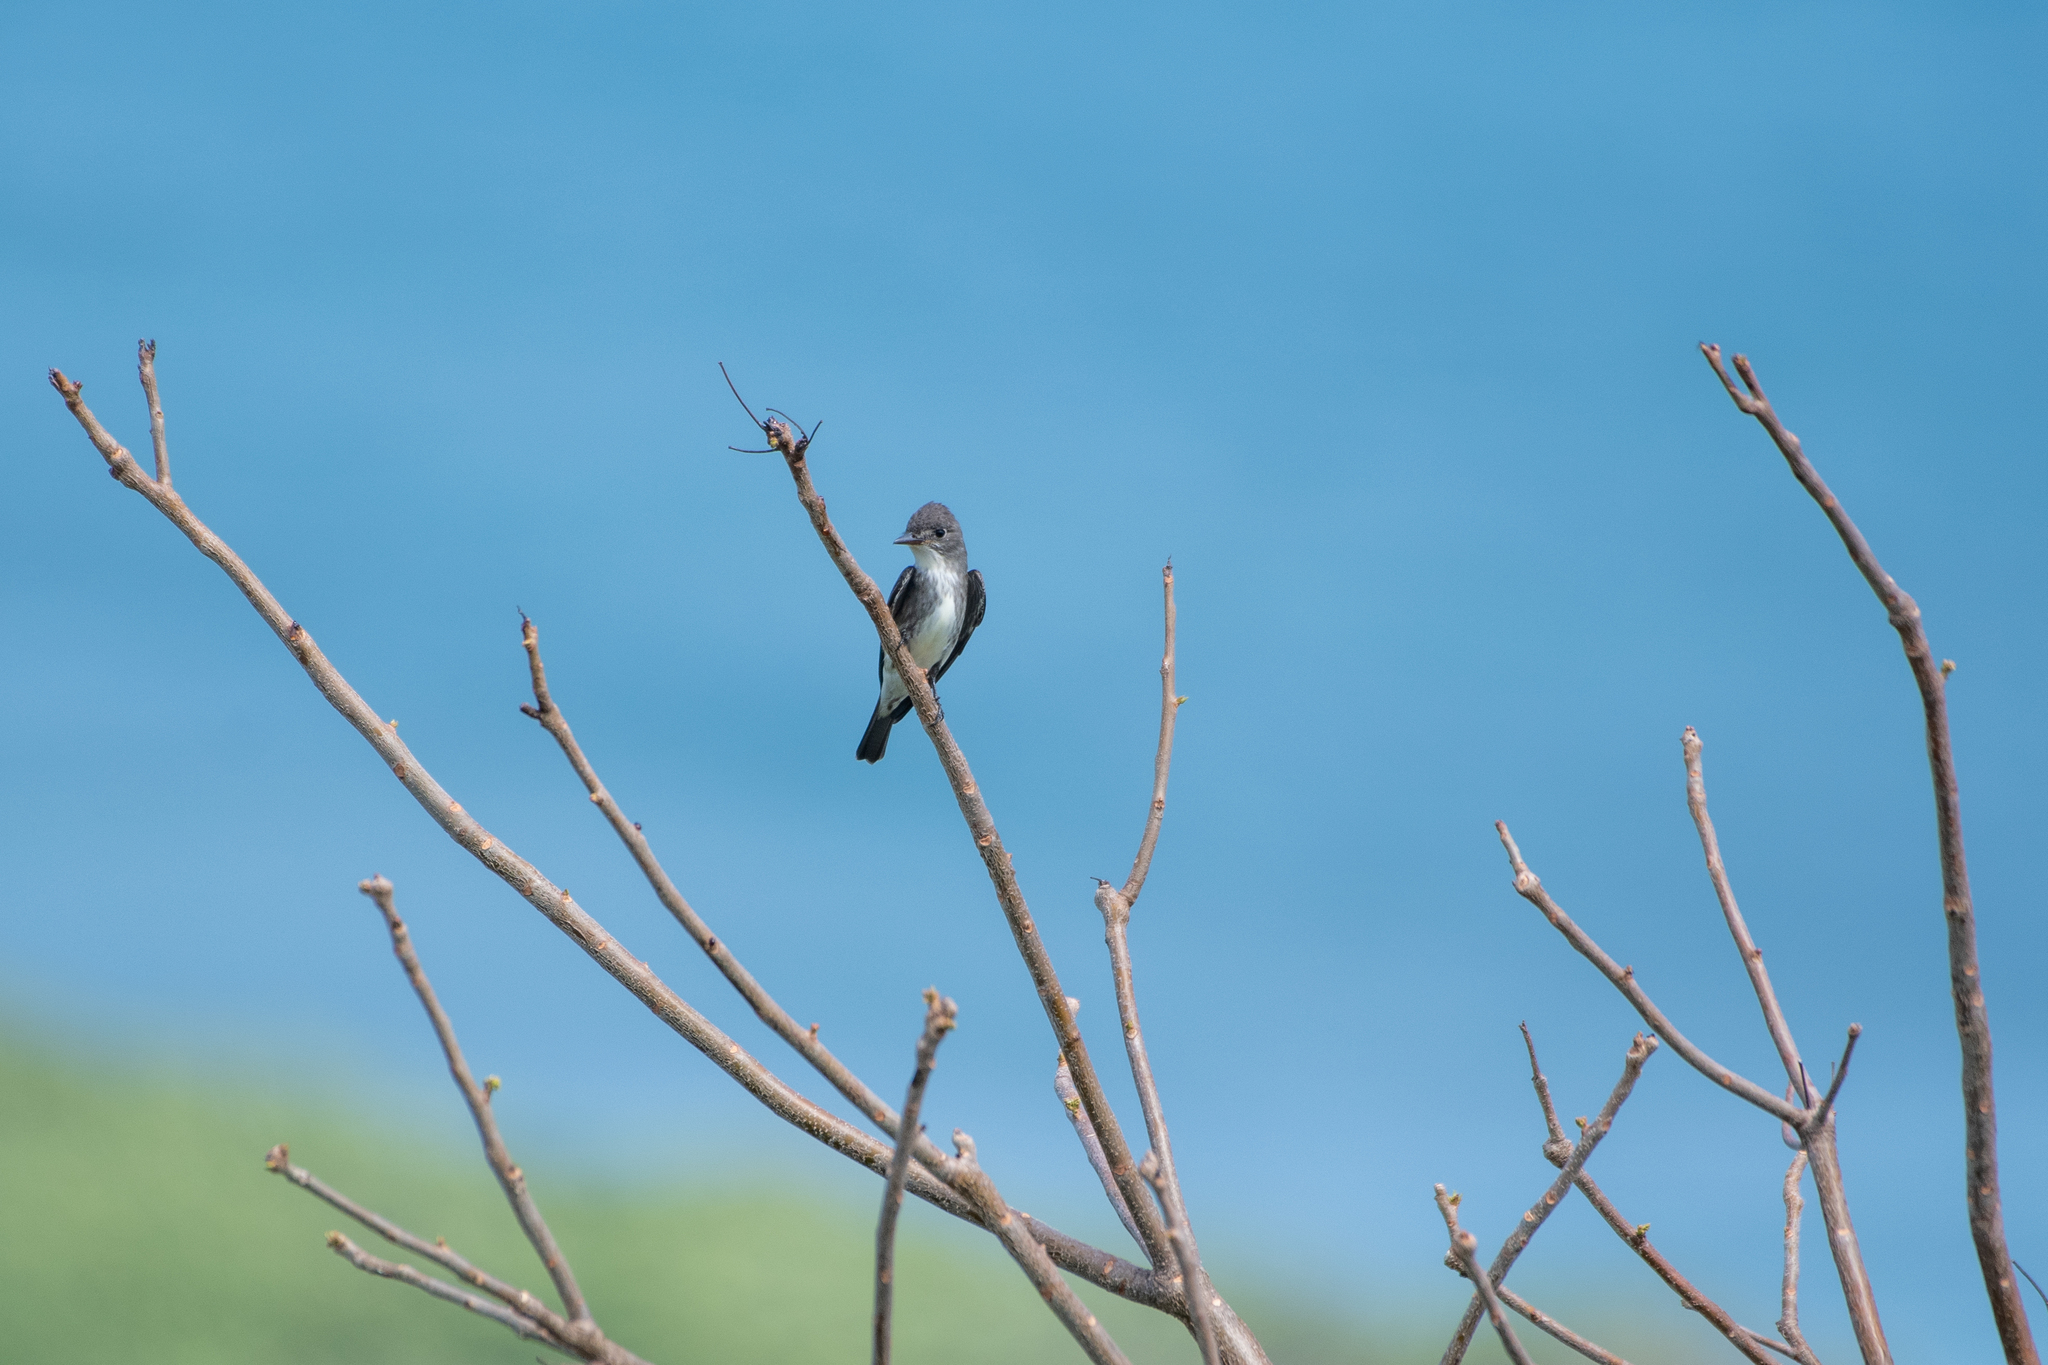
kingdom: Animalia
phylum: Chordata
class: Aves
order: Passeriformes
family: Tyrannidae
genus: Contopus
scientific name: Contopus cooperi
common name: Olive-sided flycatcher
